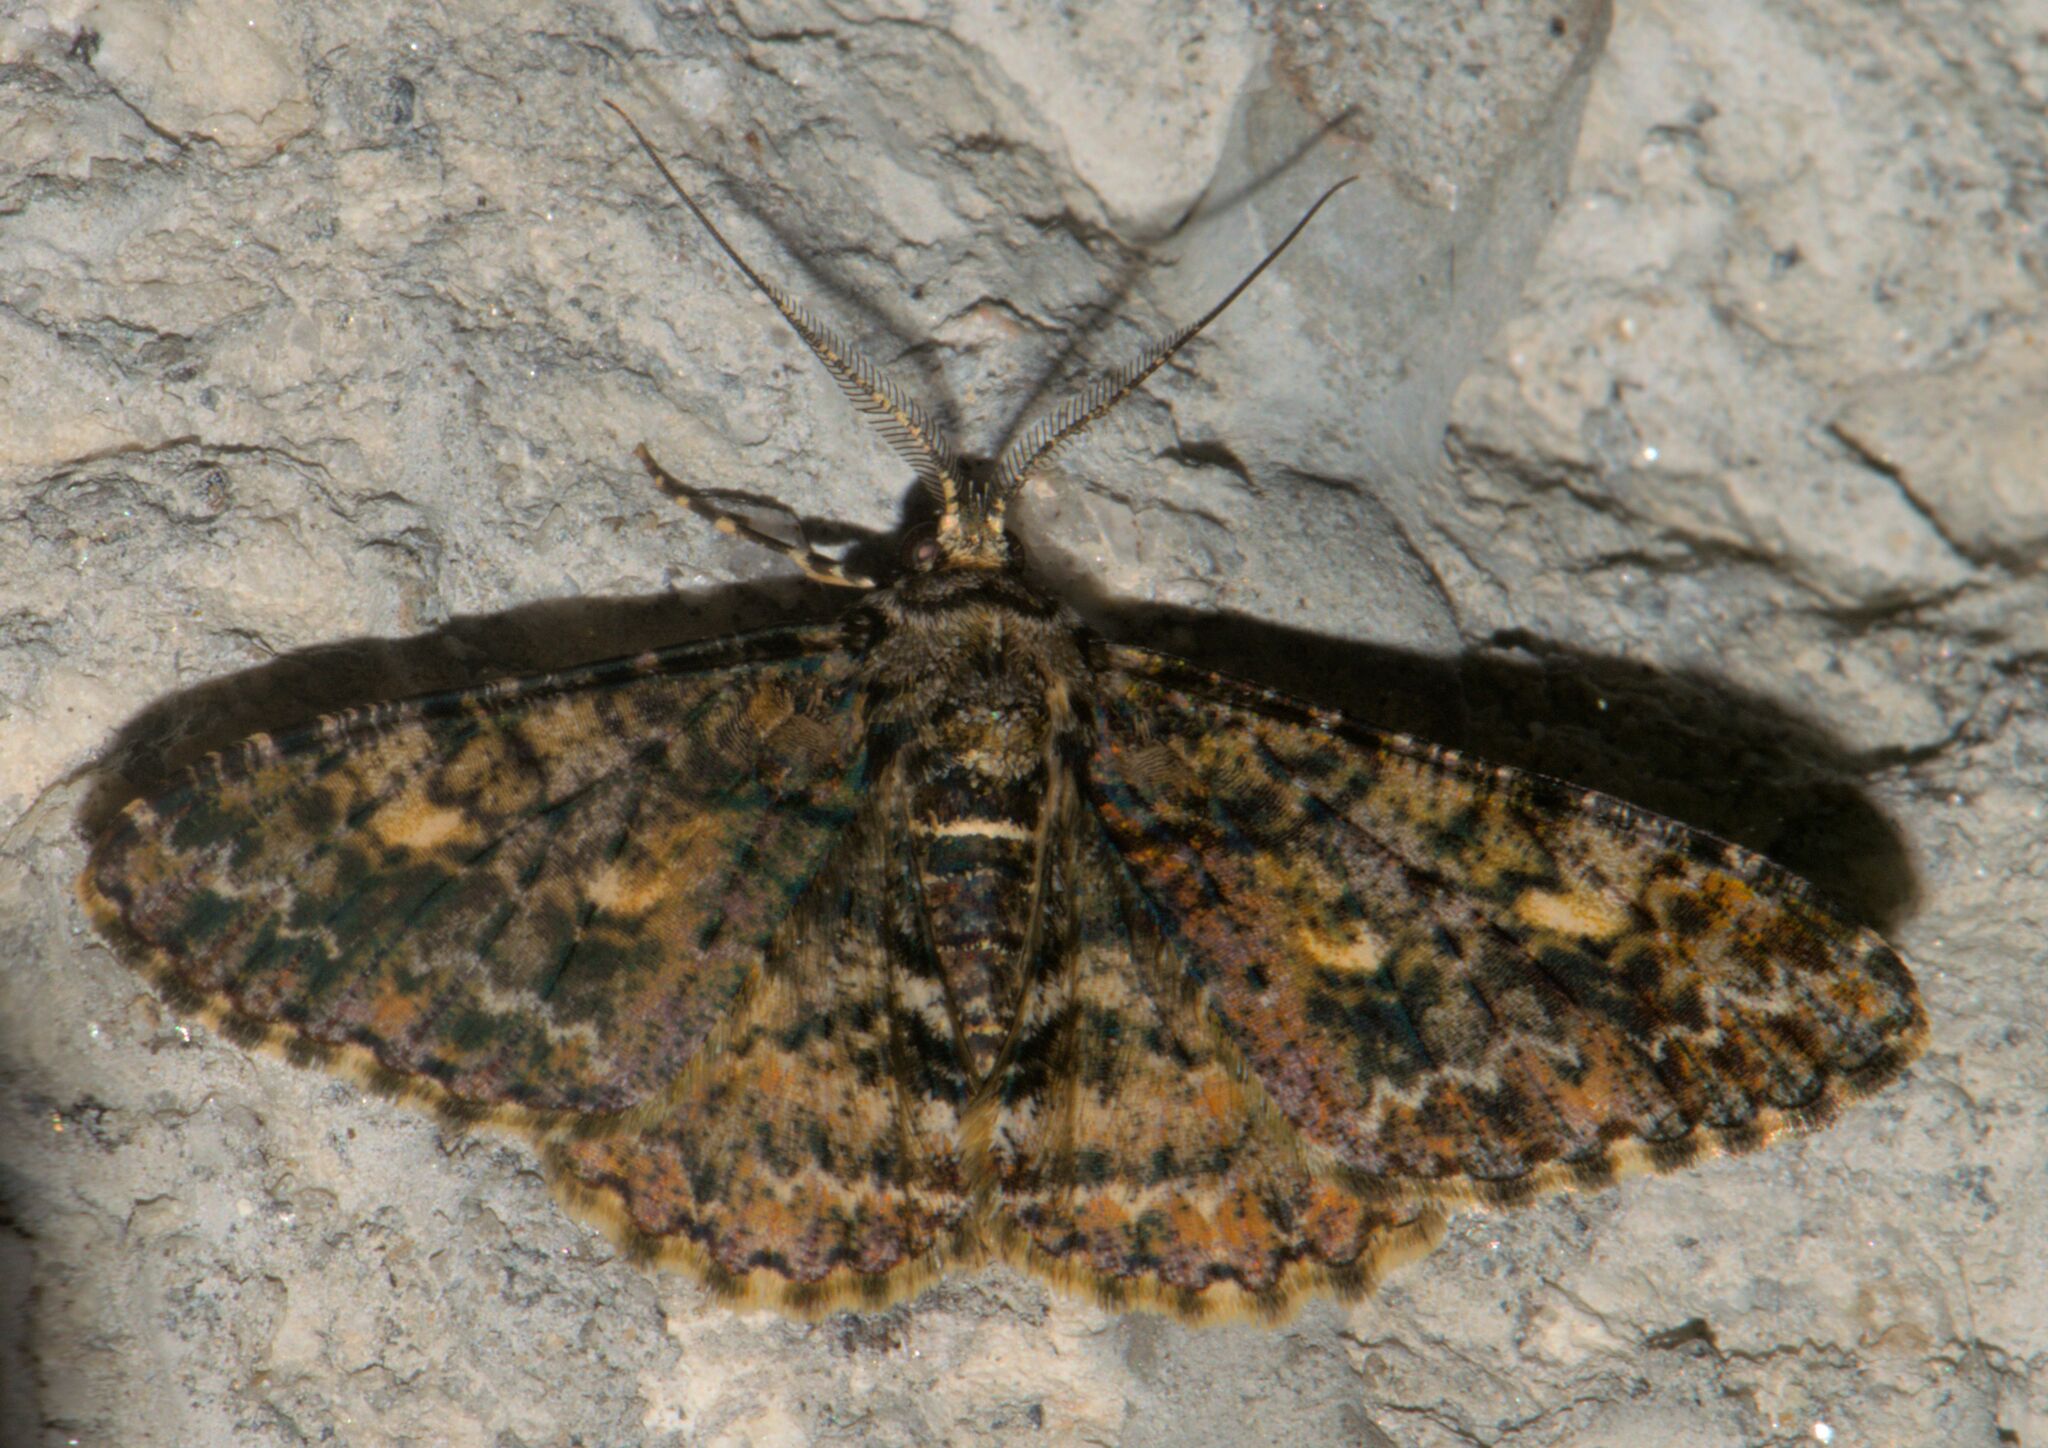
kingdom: Animalia
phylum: Arthropoda
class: Insecta
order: Lepidoptera
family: Geometridae
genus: Alcis
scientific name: Alcis variegata
